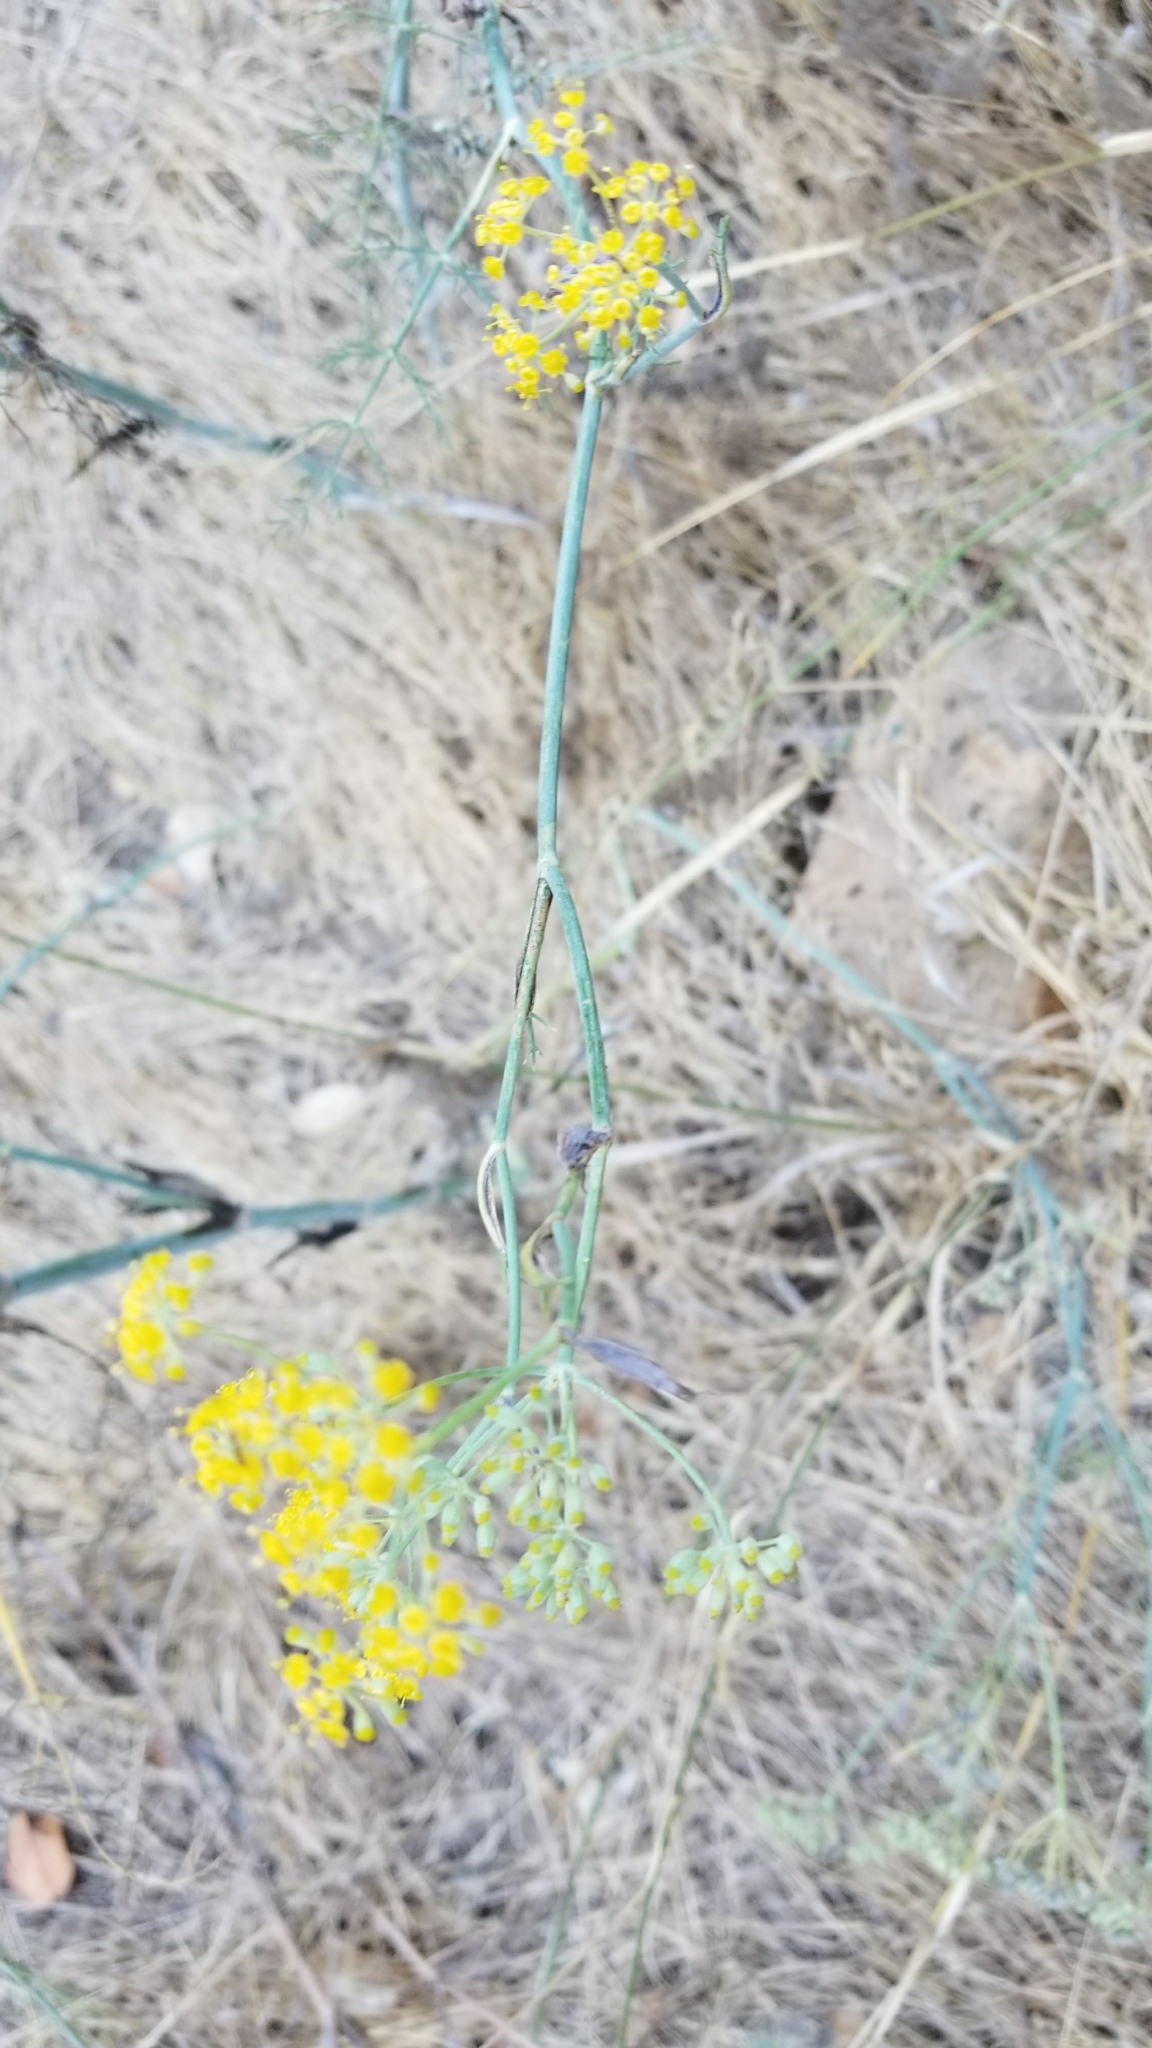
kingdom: Plantae
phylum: Tracheophyta
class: Magnoliopsida
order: Apiales
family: Apiaceae
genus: Foeniculum
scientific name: Foeniculum vulgare
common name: Fennel
